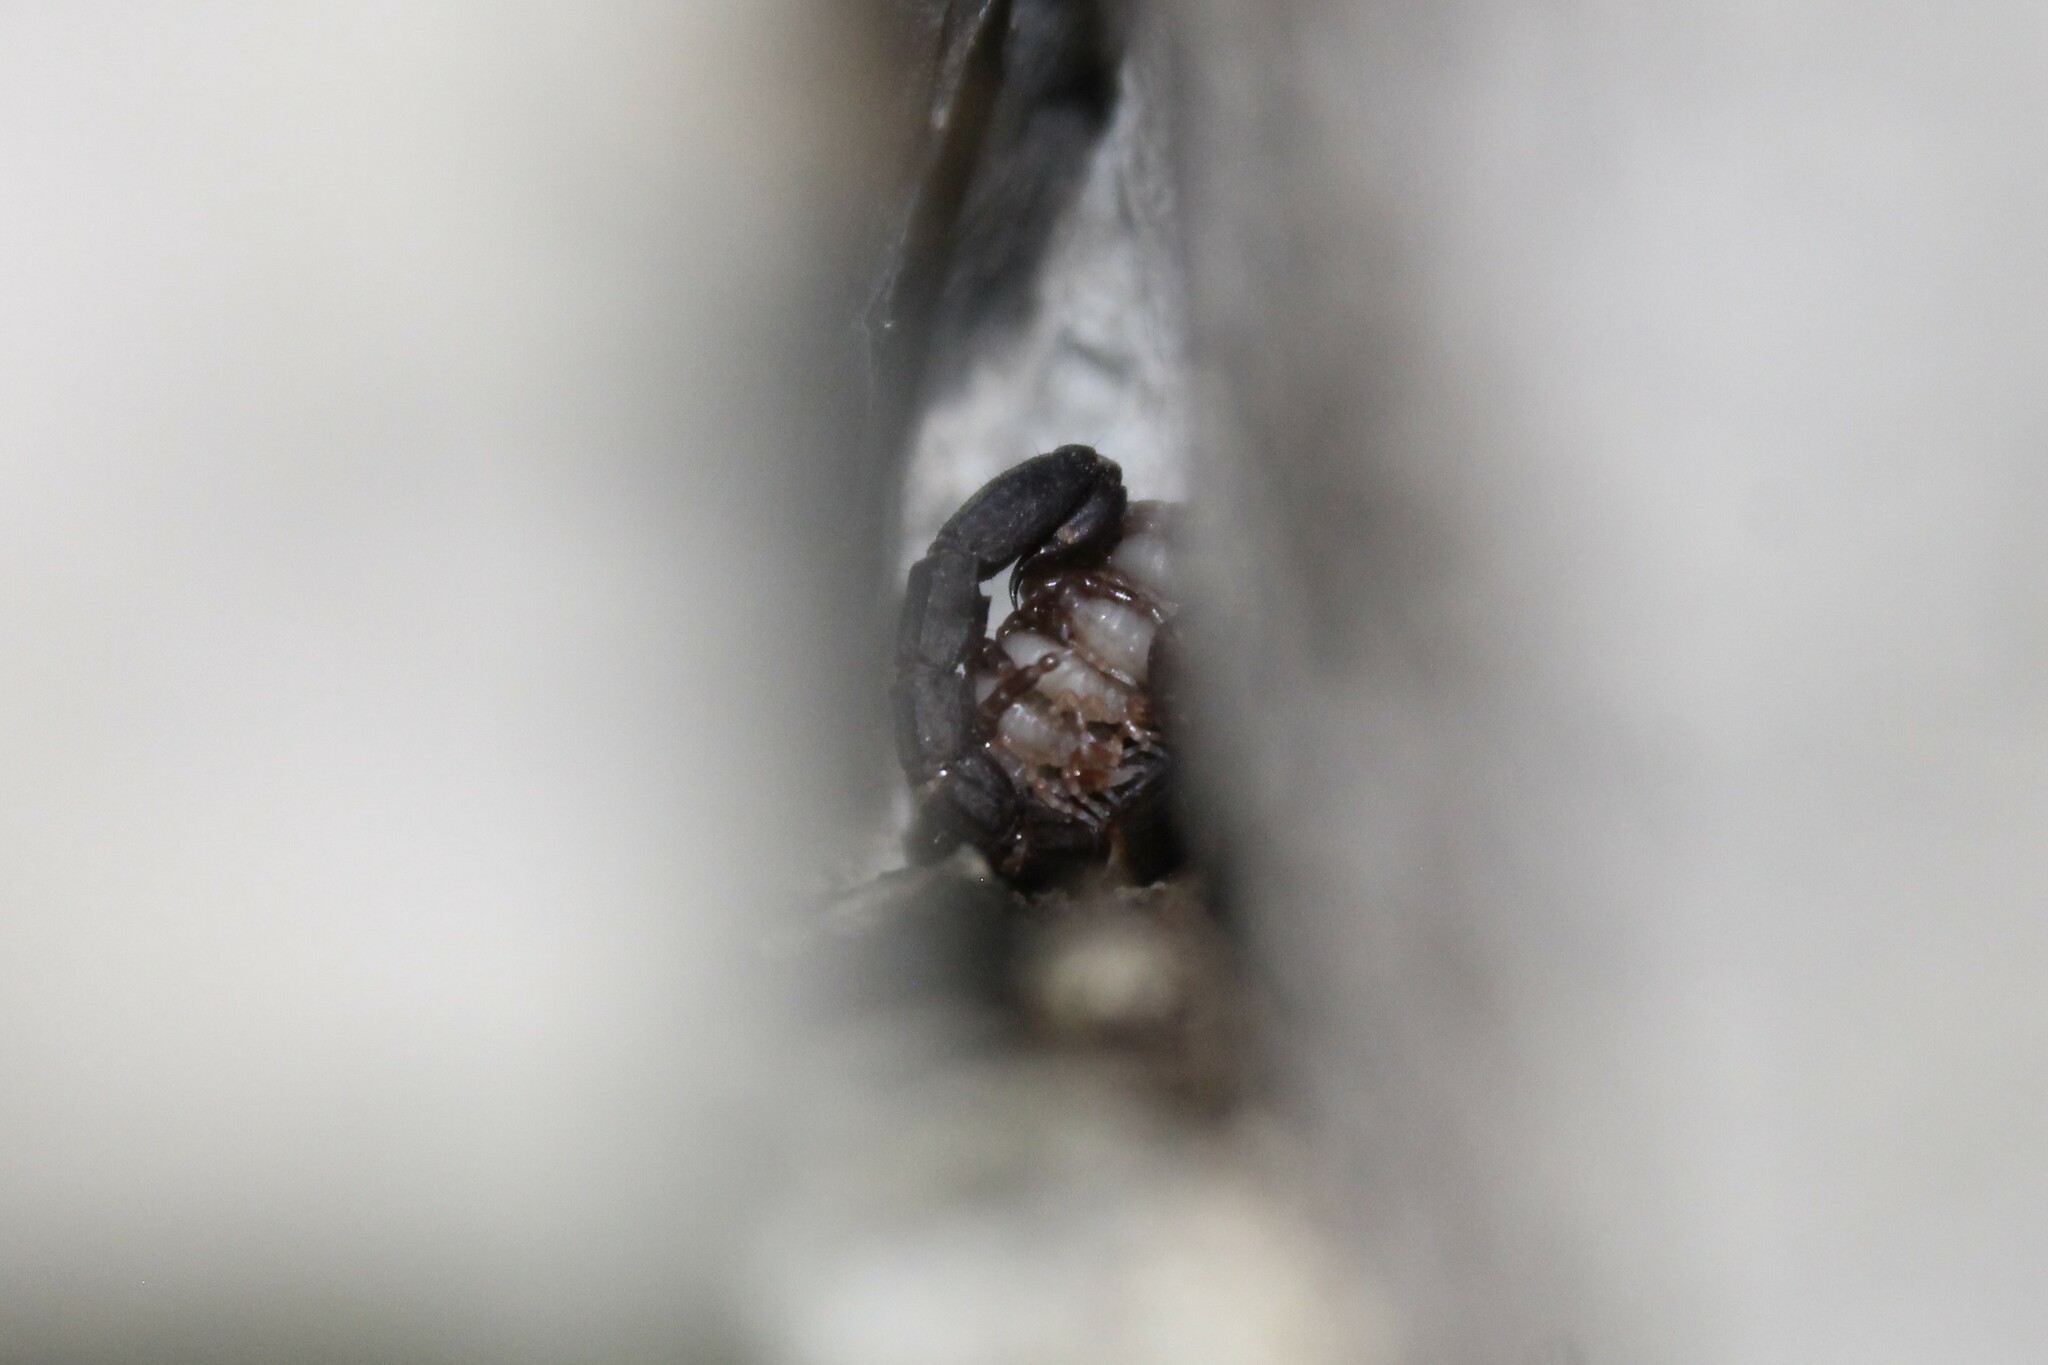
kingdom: Animalia
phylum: Arthropoda
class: Arachnida
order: Scorpiones
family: Vaejovidae
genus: Vaejovis
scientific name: Vaejovis carolinianus
